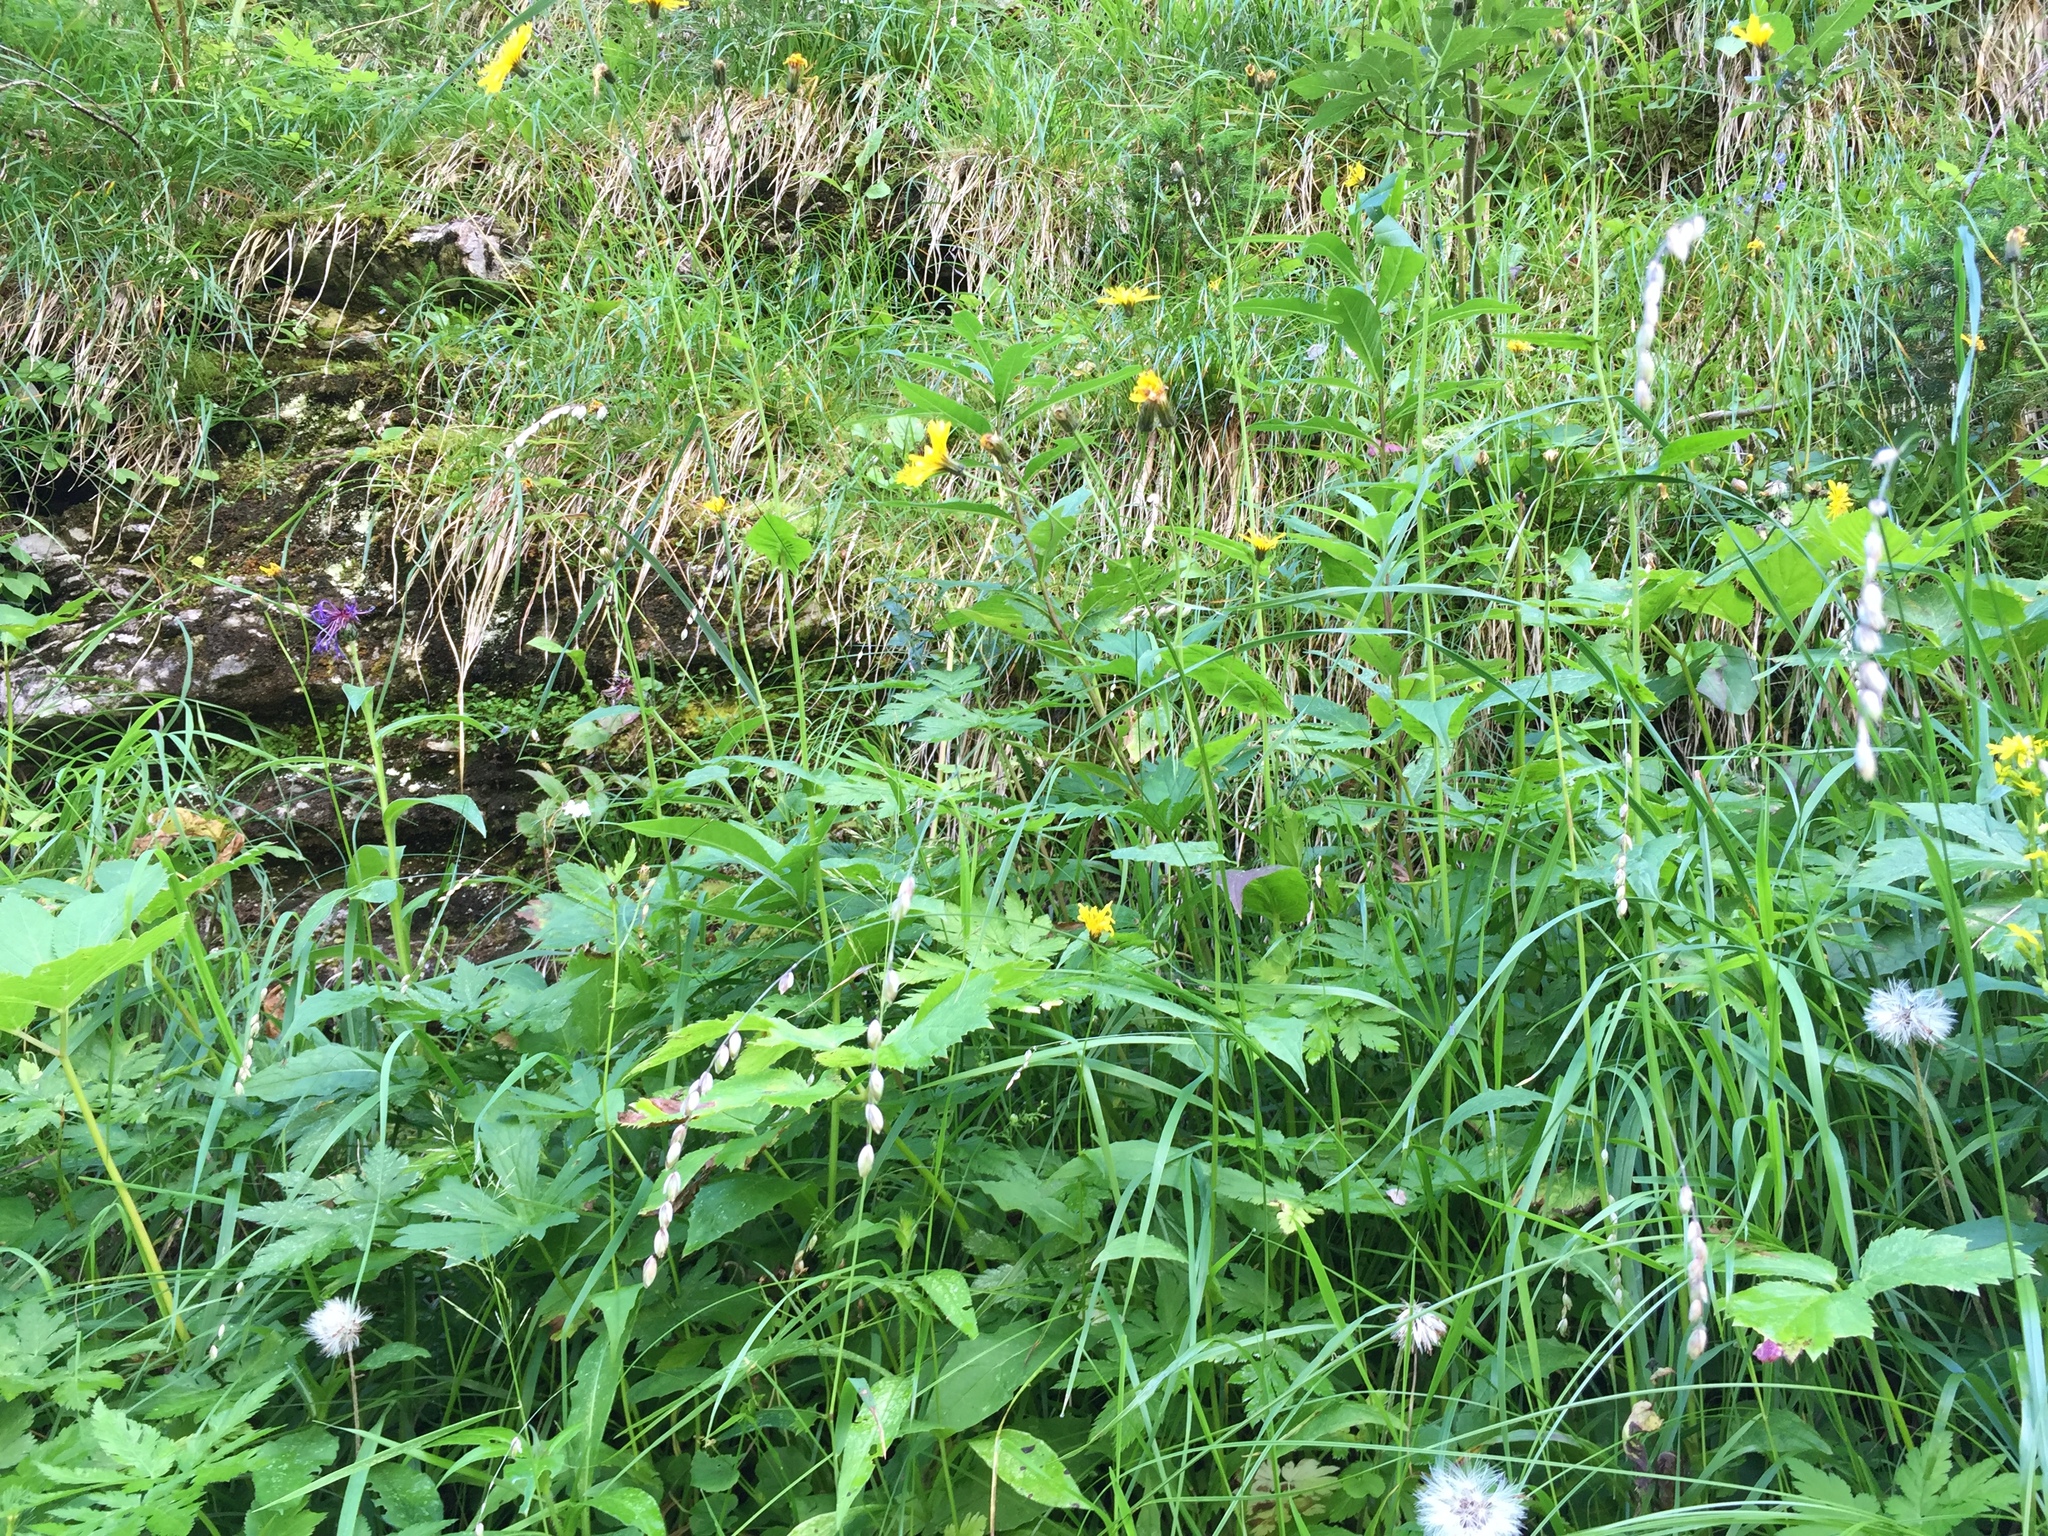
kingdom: Plantae
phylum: Tracheophyta
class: Liliopsida
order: Poales
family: Poaceae
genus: Melica
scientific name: Melica nutans
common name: Mountain melick
